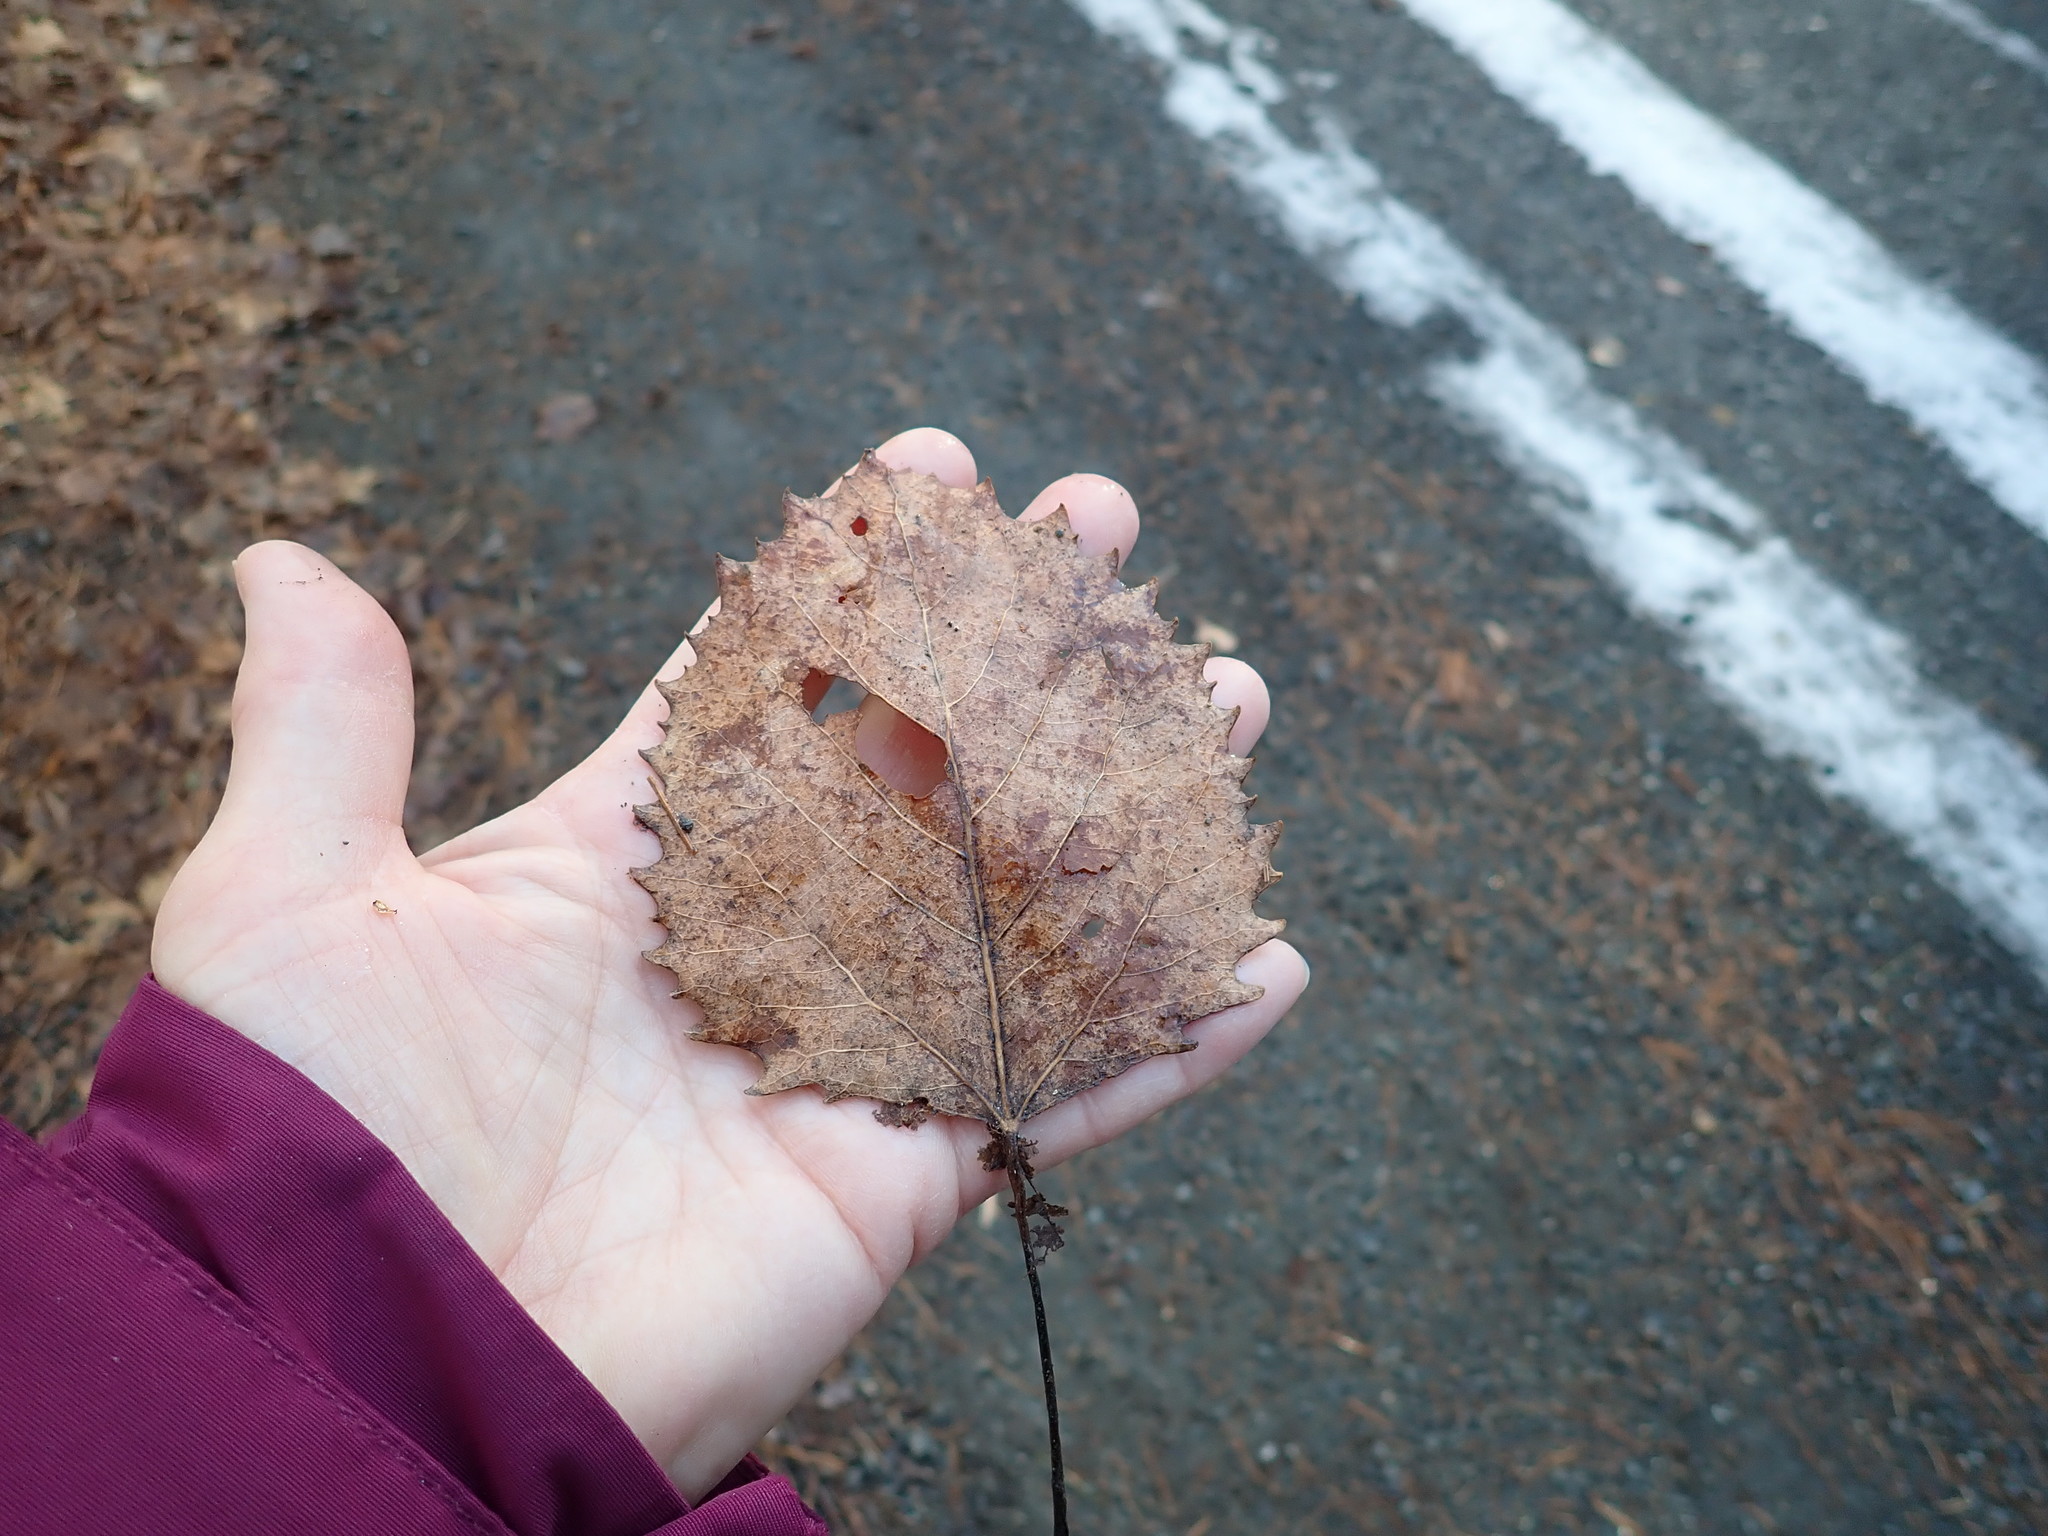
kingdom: Plantae
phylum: Tracheophyta
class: Magnoliopsida
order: Malpighiales
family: Salicaceae
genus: Populus
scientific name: Populus grandidentata
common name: Bigtooth aspen
